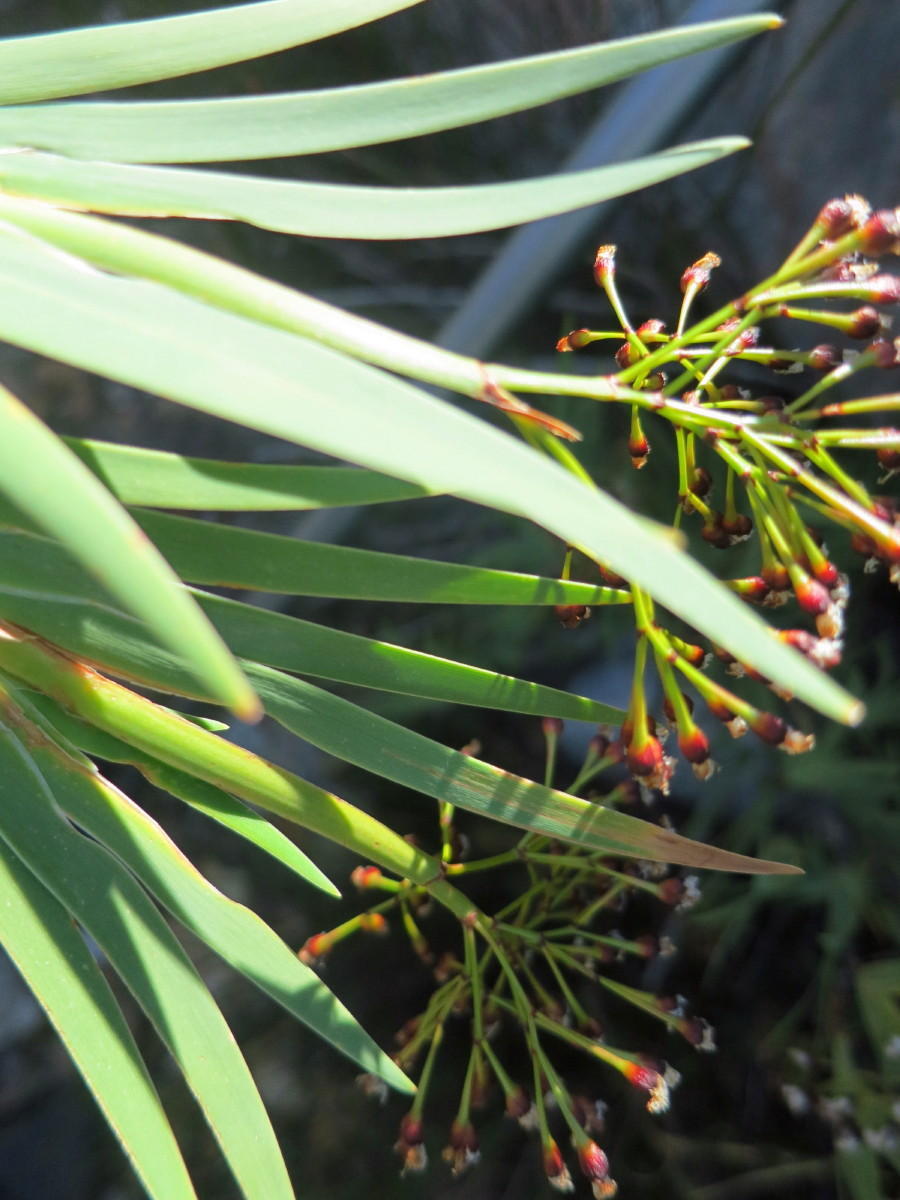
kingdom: Plantae
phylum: Tracheophyta
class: Liliopsida
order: Asparagales
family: Iridaceae
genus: Nivenia
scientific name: Nivenia parviflora
